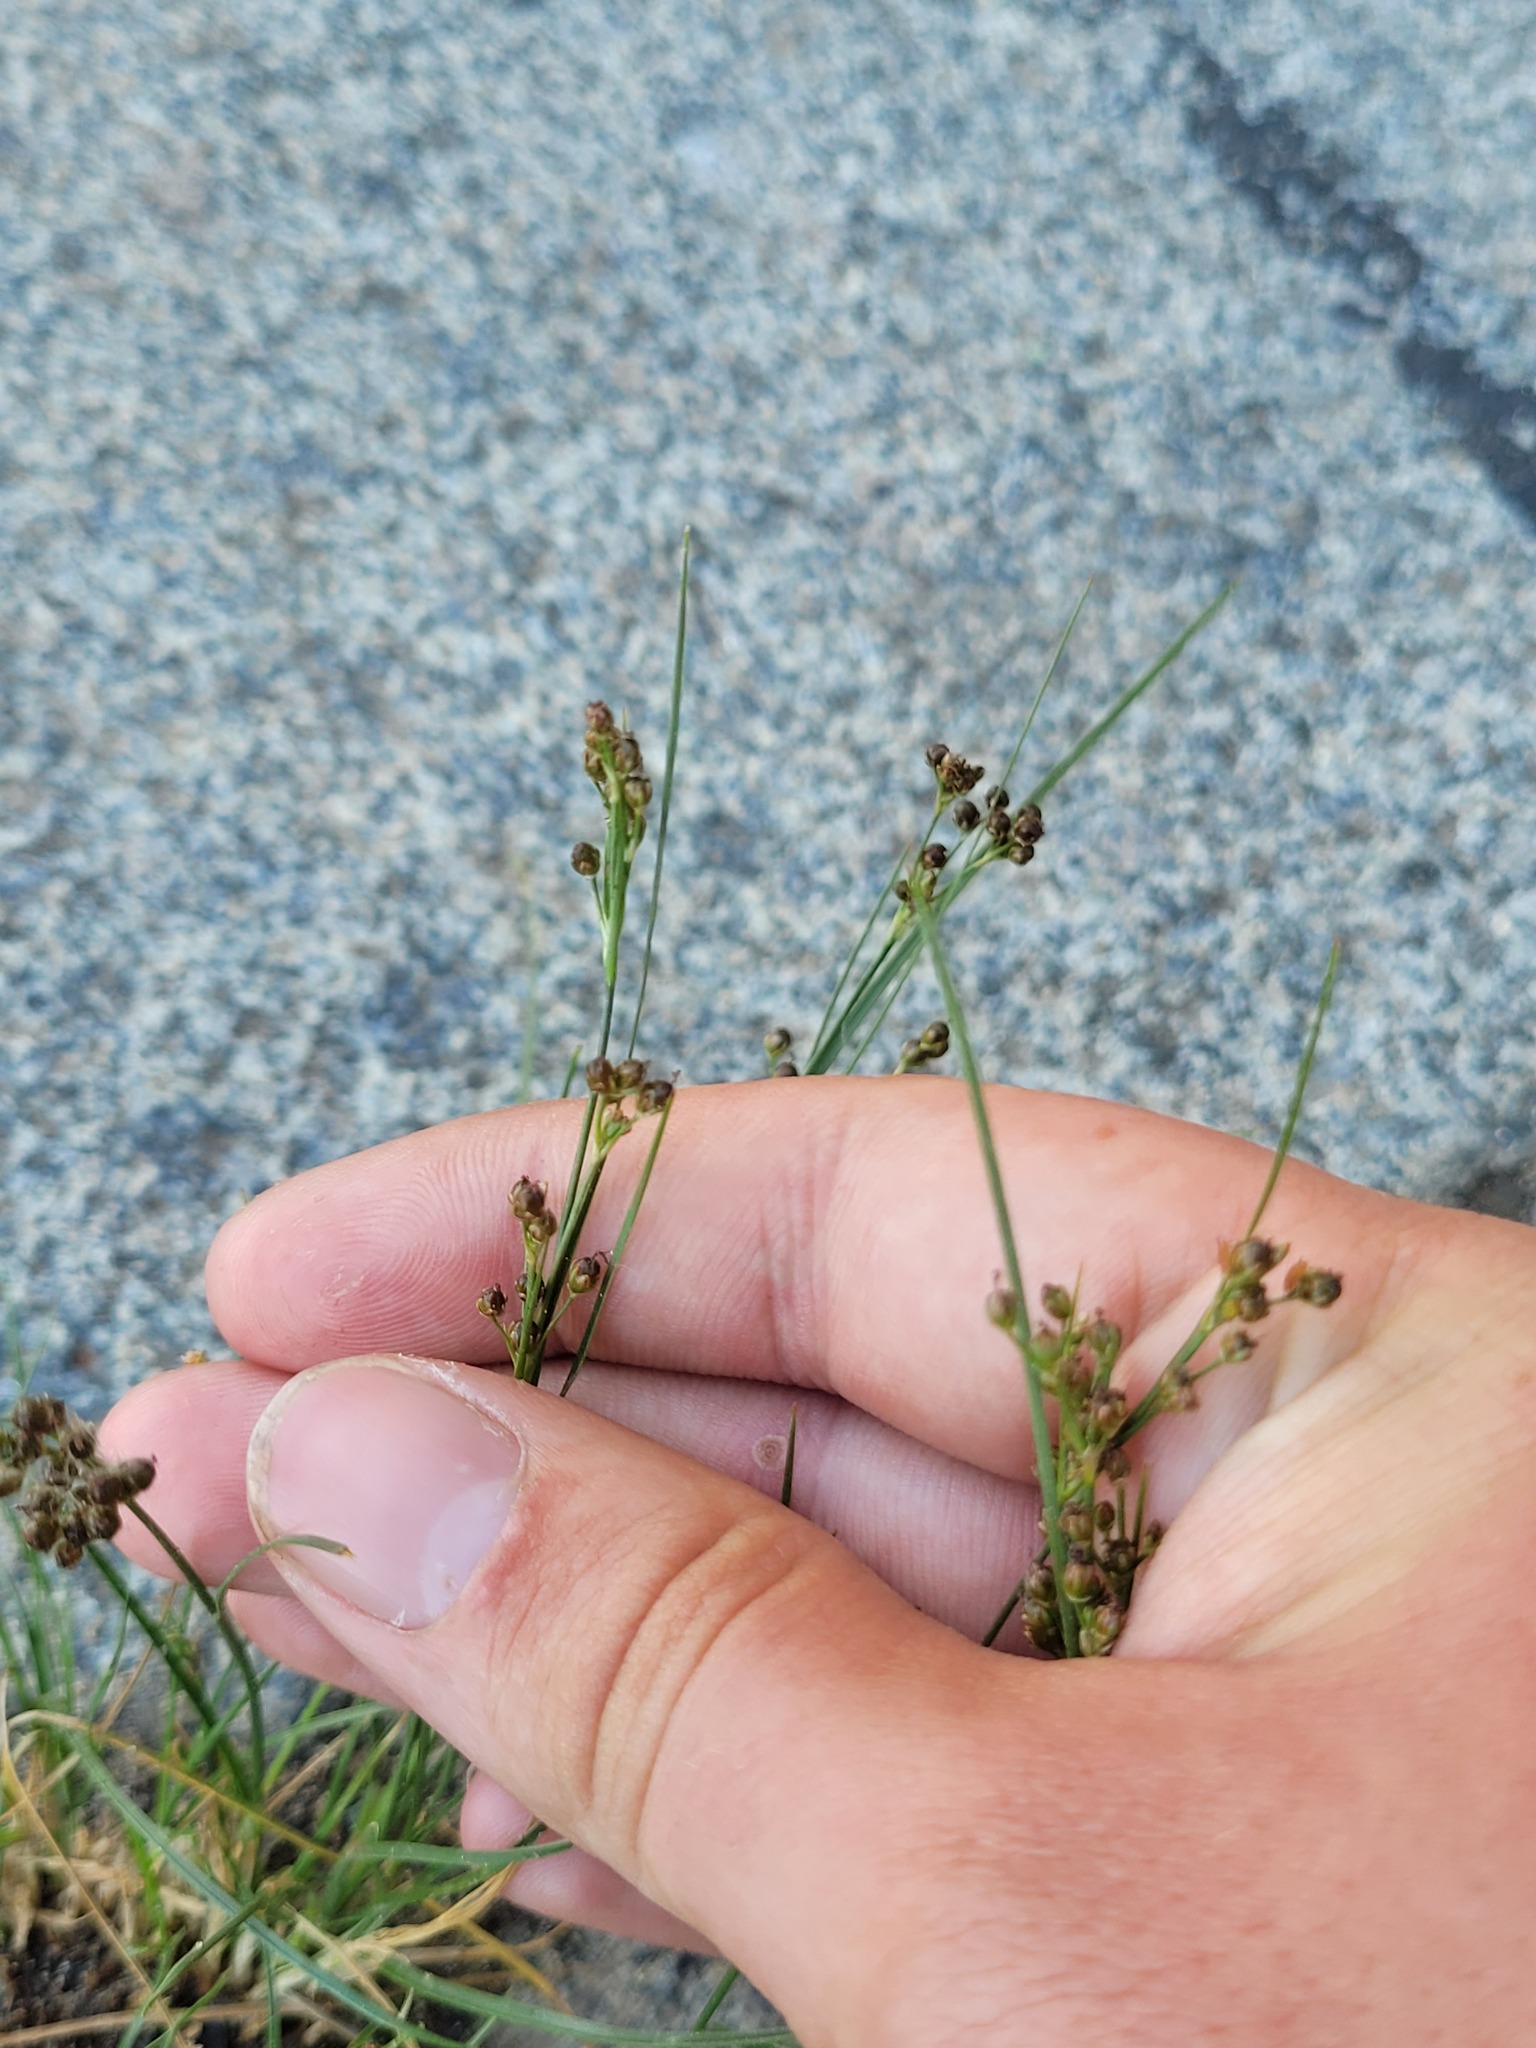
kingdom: Plantae
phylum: Tracheophyta
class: Liliopsida
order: Poales
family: Juncaceae
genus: Juncus
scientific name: Juncus compressus
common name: Round-fruited rush
